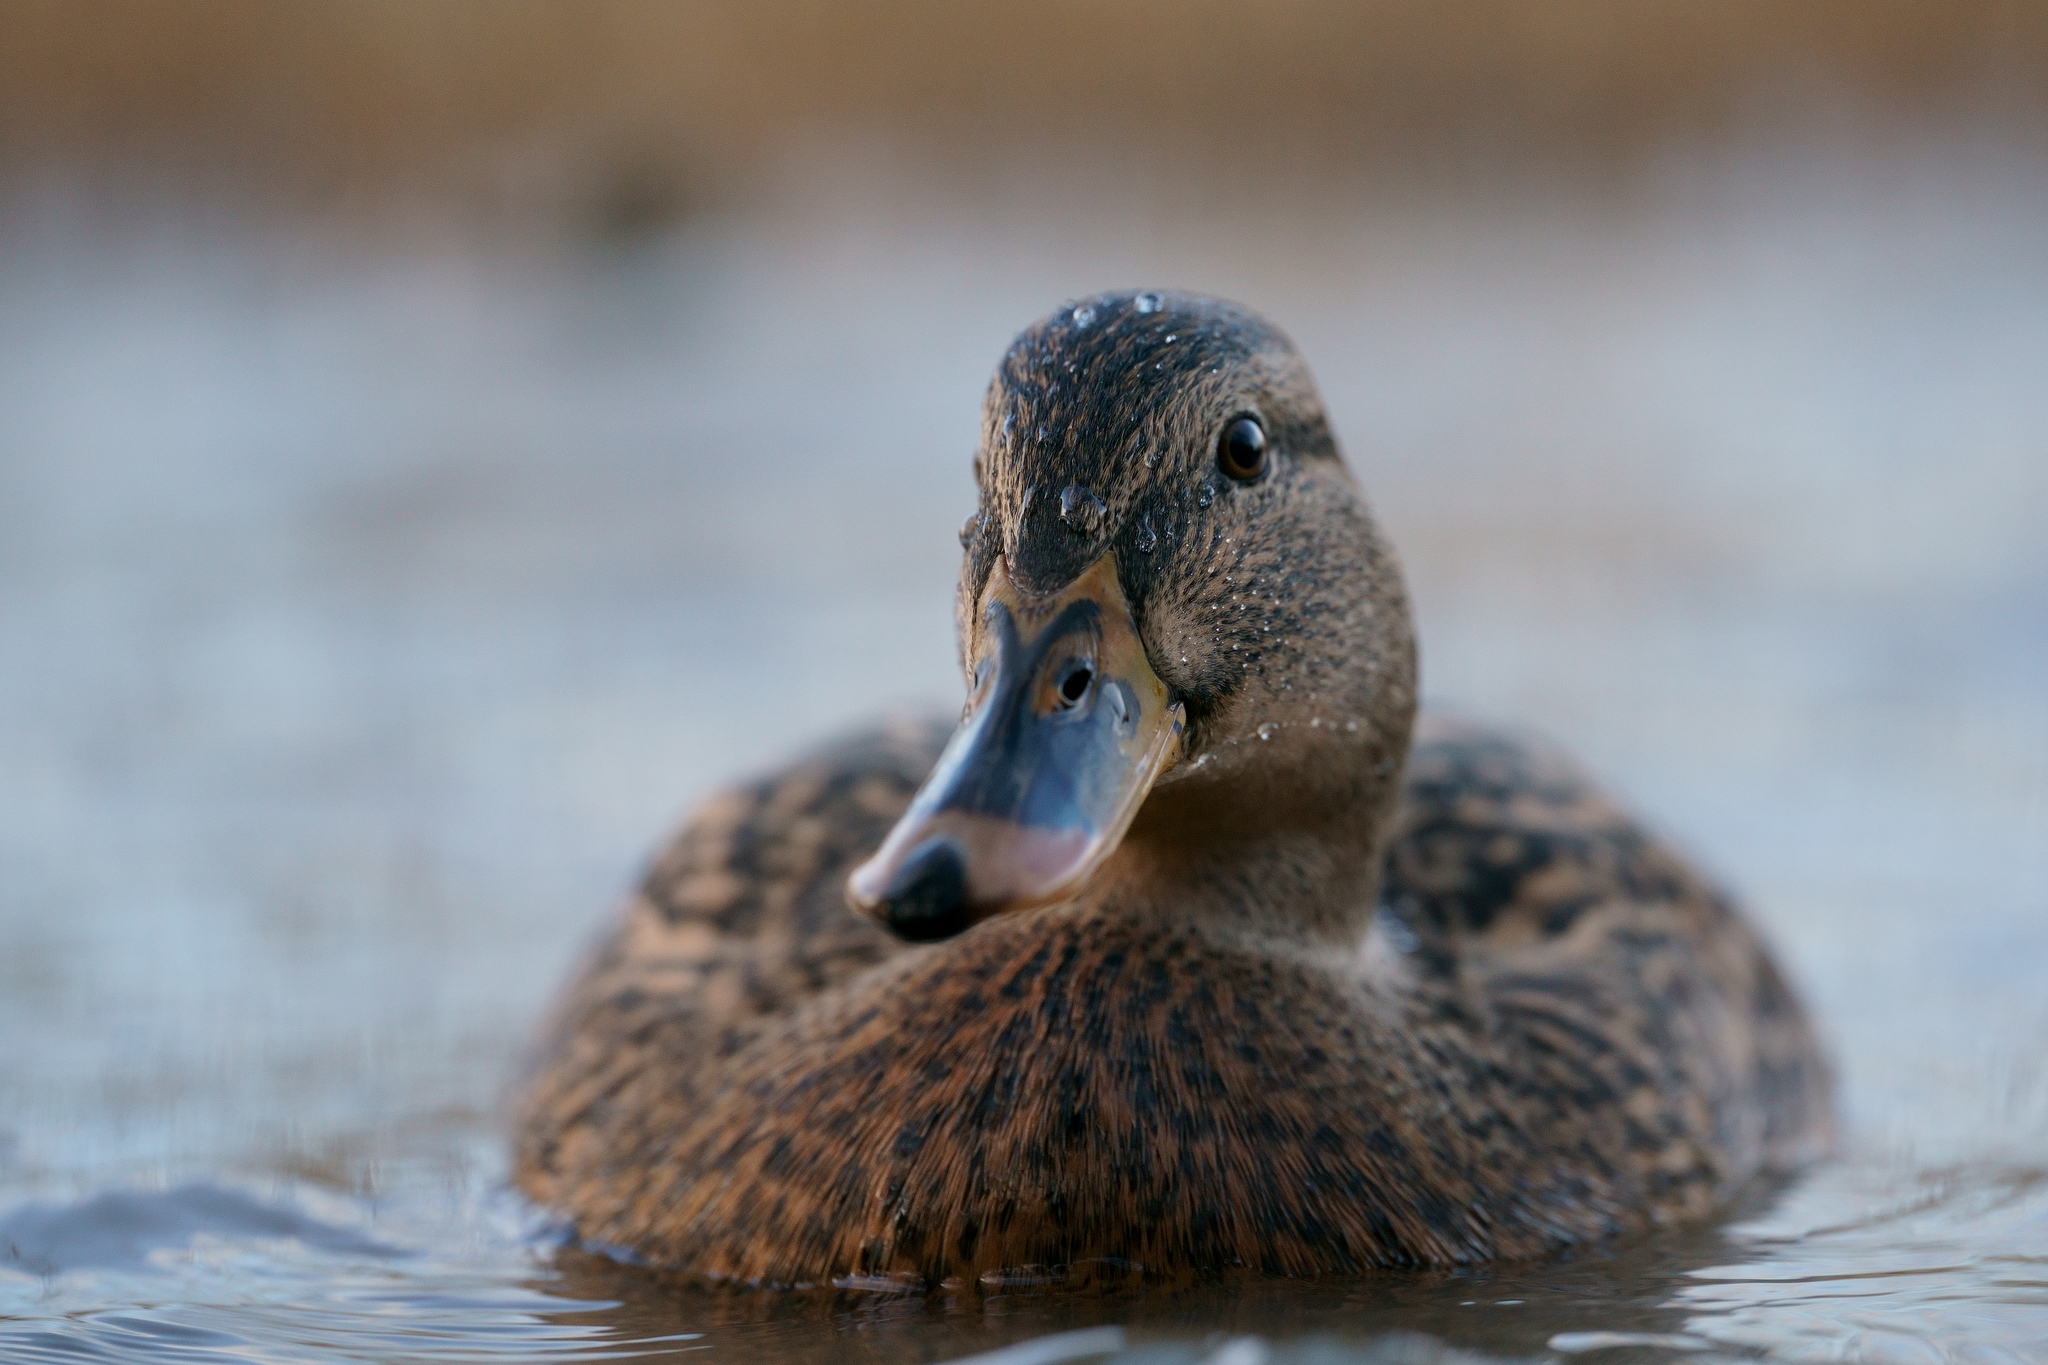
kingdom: Animalia
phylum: Chordata
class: Aves
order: Anseriformes
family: Anatidae
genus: Anas
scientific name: Anas platyrhynchos
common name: Mallard
